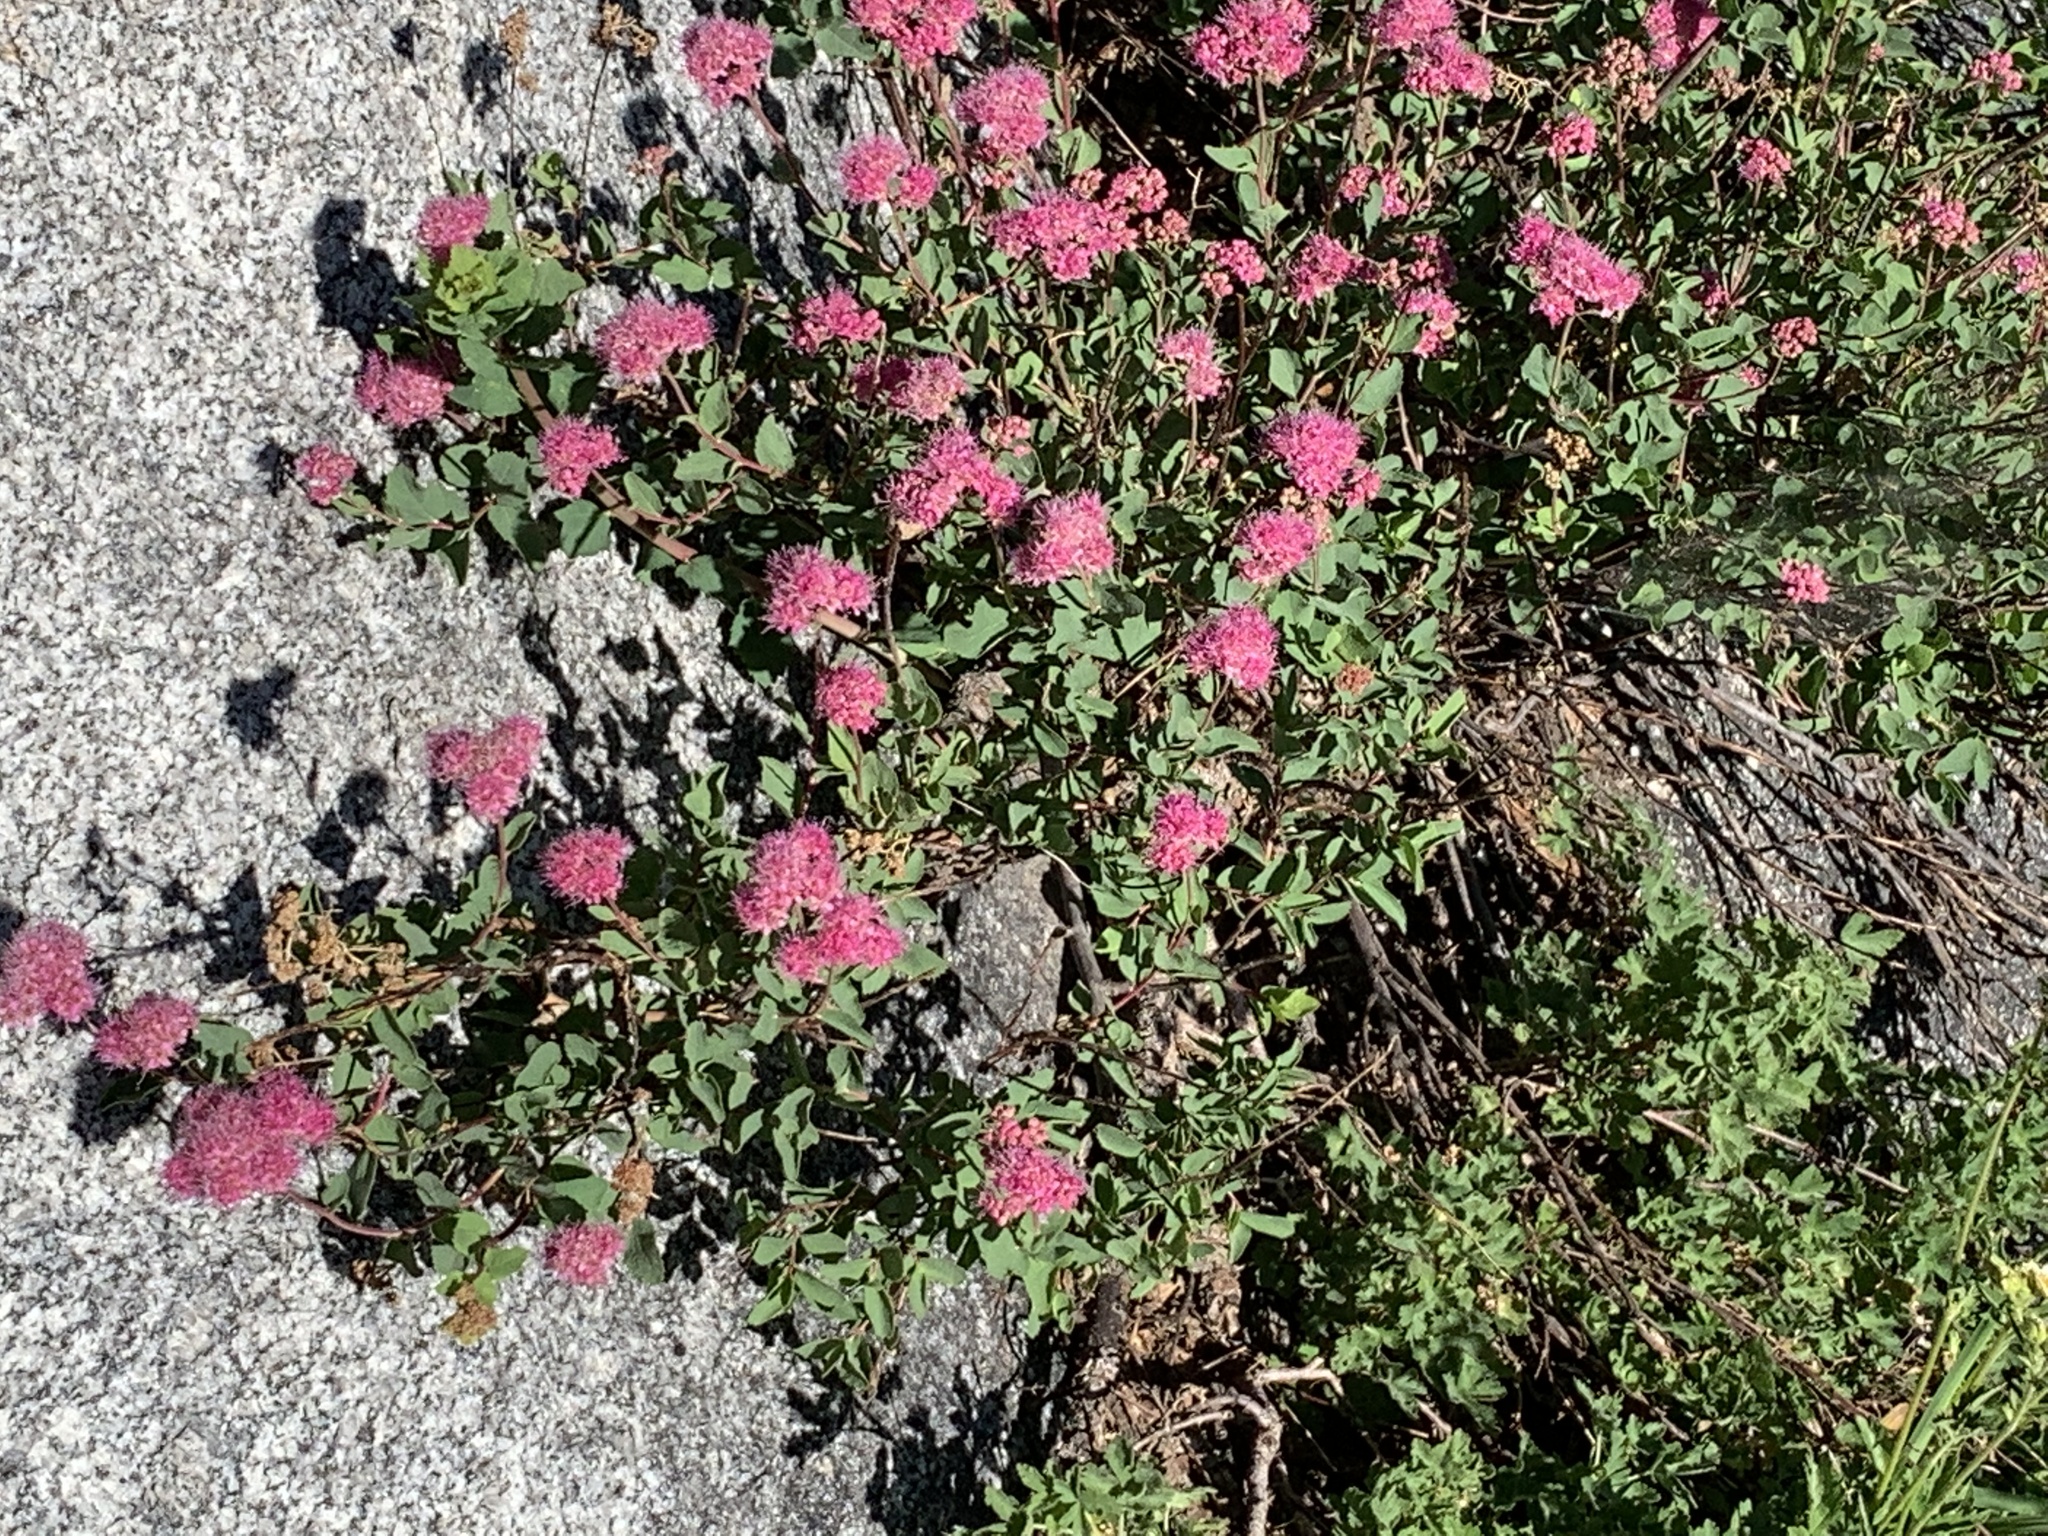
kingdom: Plantae
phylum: Tracheophyta
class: Magnoliopsida
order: Rosales
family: Rosaceae
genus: Spiraea
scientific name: Spiraea splendens
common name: Subalpine meadowsweet
